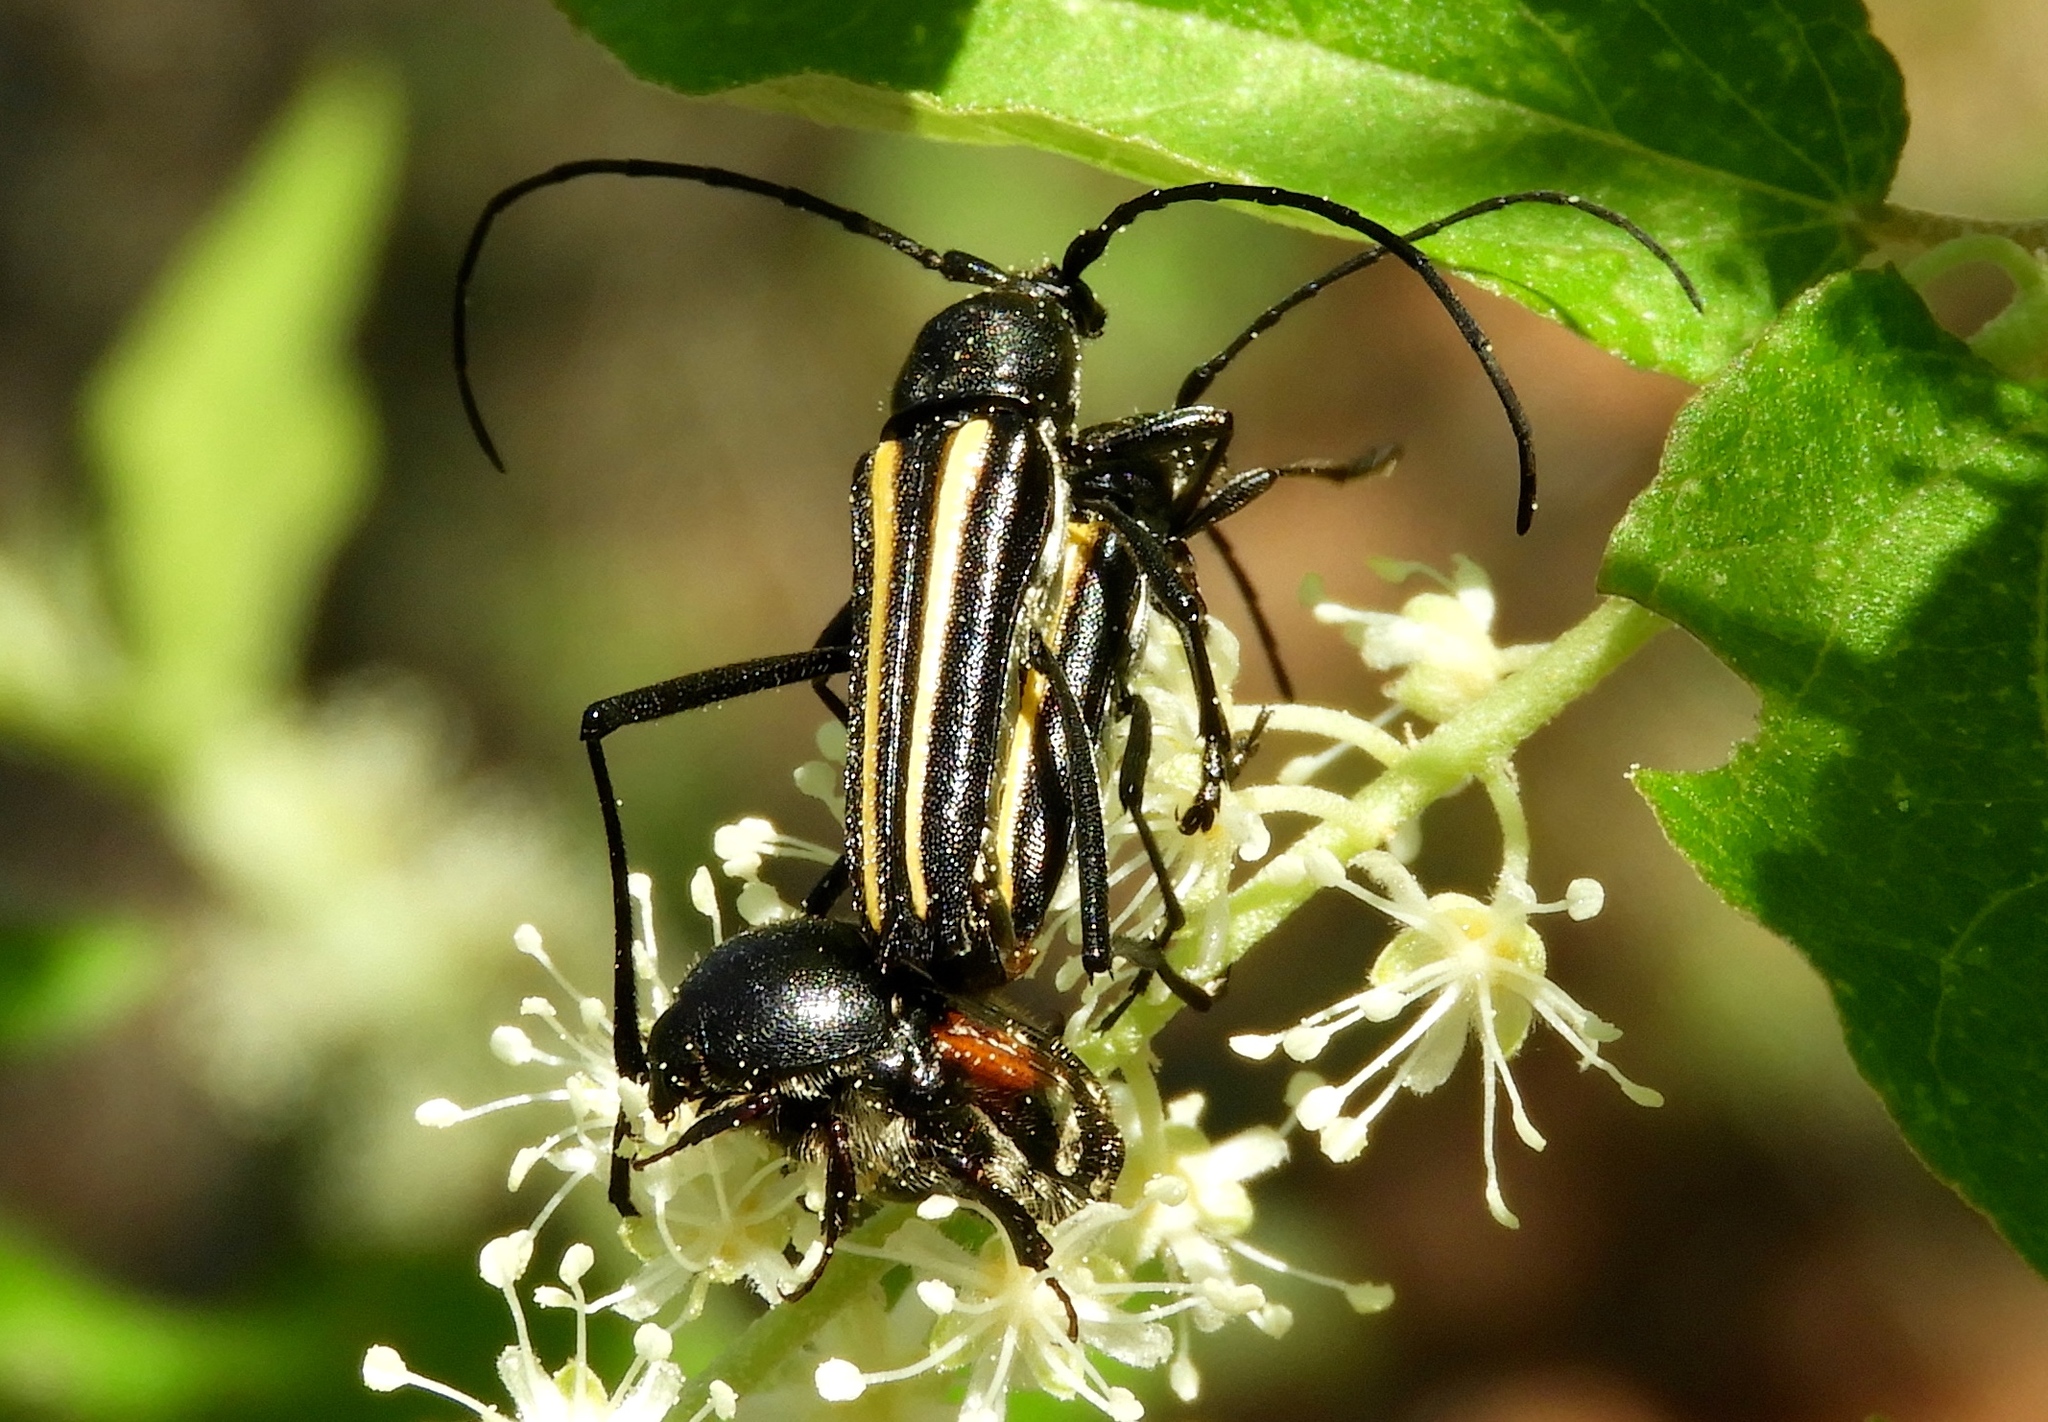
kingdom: Animalia
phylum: Arthropoda
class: Insecta
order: Coleoptera
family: Cerambycidae
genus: Lophalia
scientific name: Lophalia prolata
